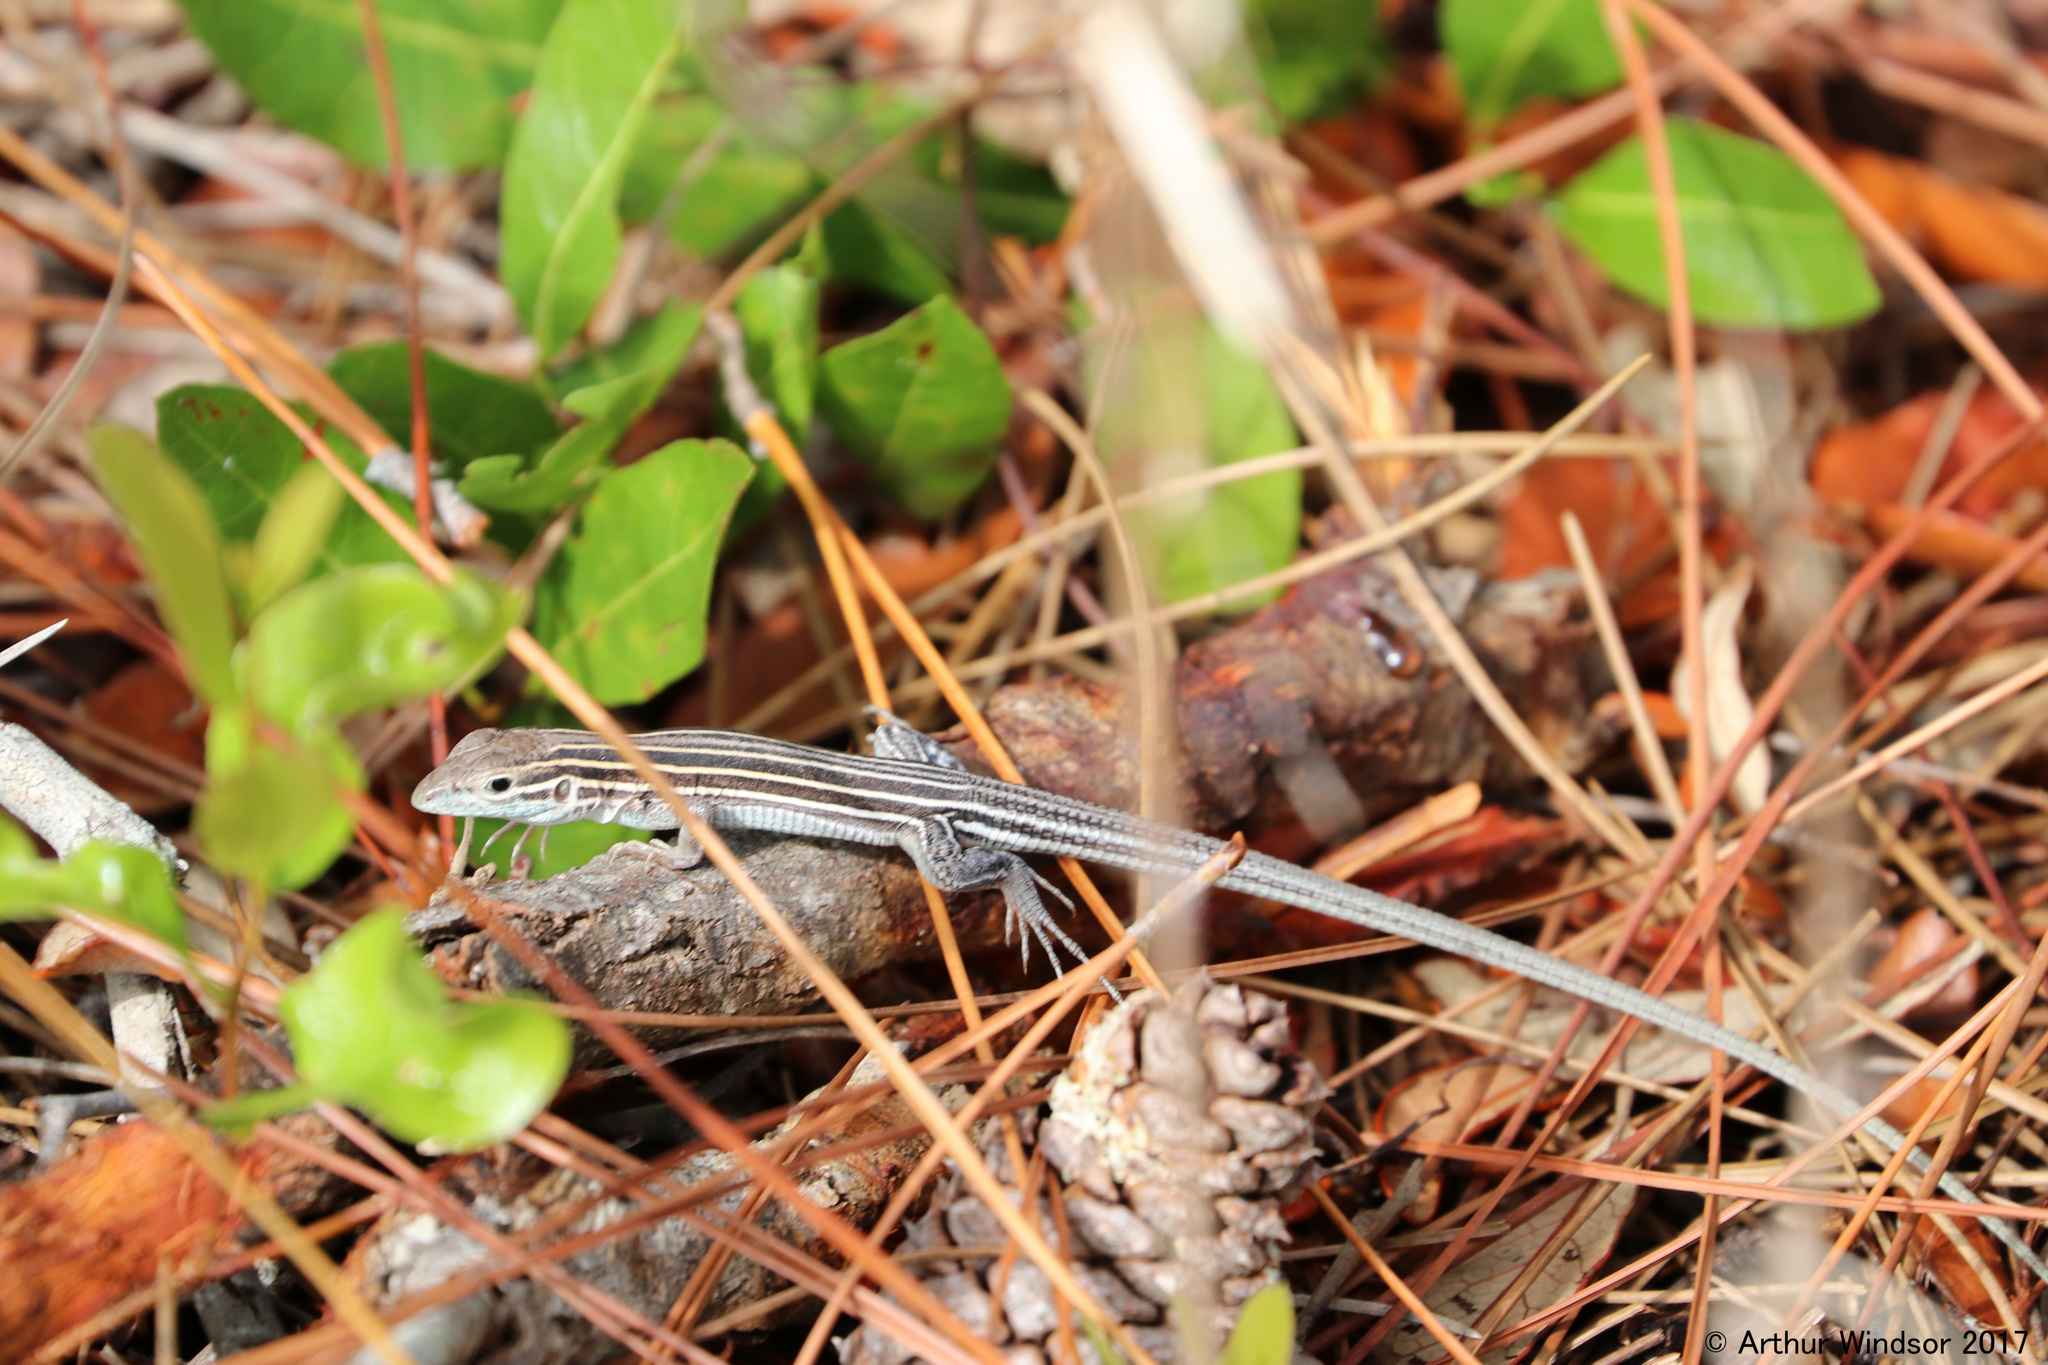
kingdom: Animalia
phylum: Chordata
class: Squamata
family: Teiidae
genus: Aspidoscelis
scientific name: Aspidoscelis sexlineatus
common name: Six-lined racerunner
